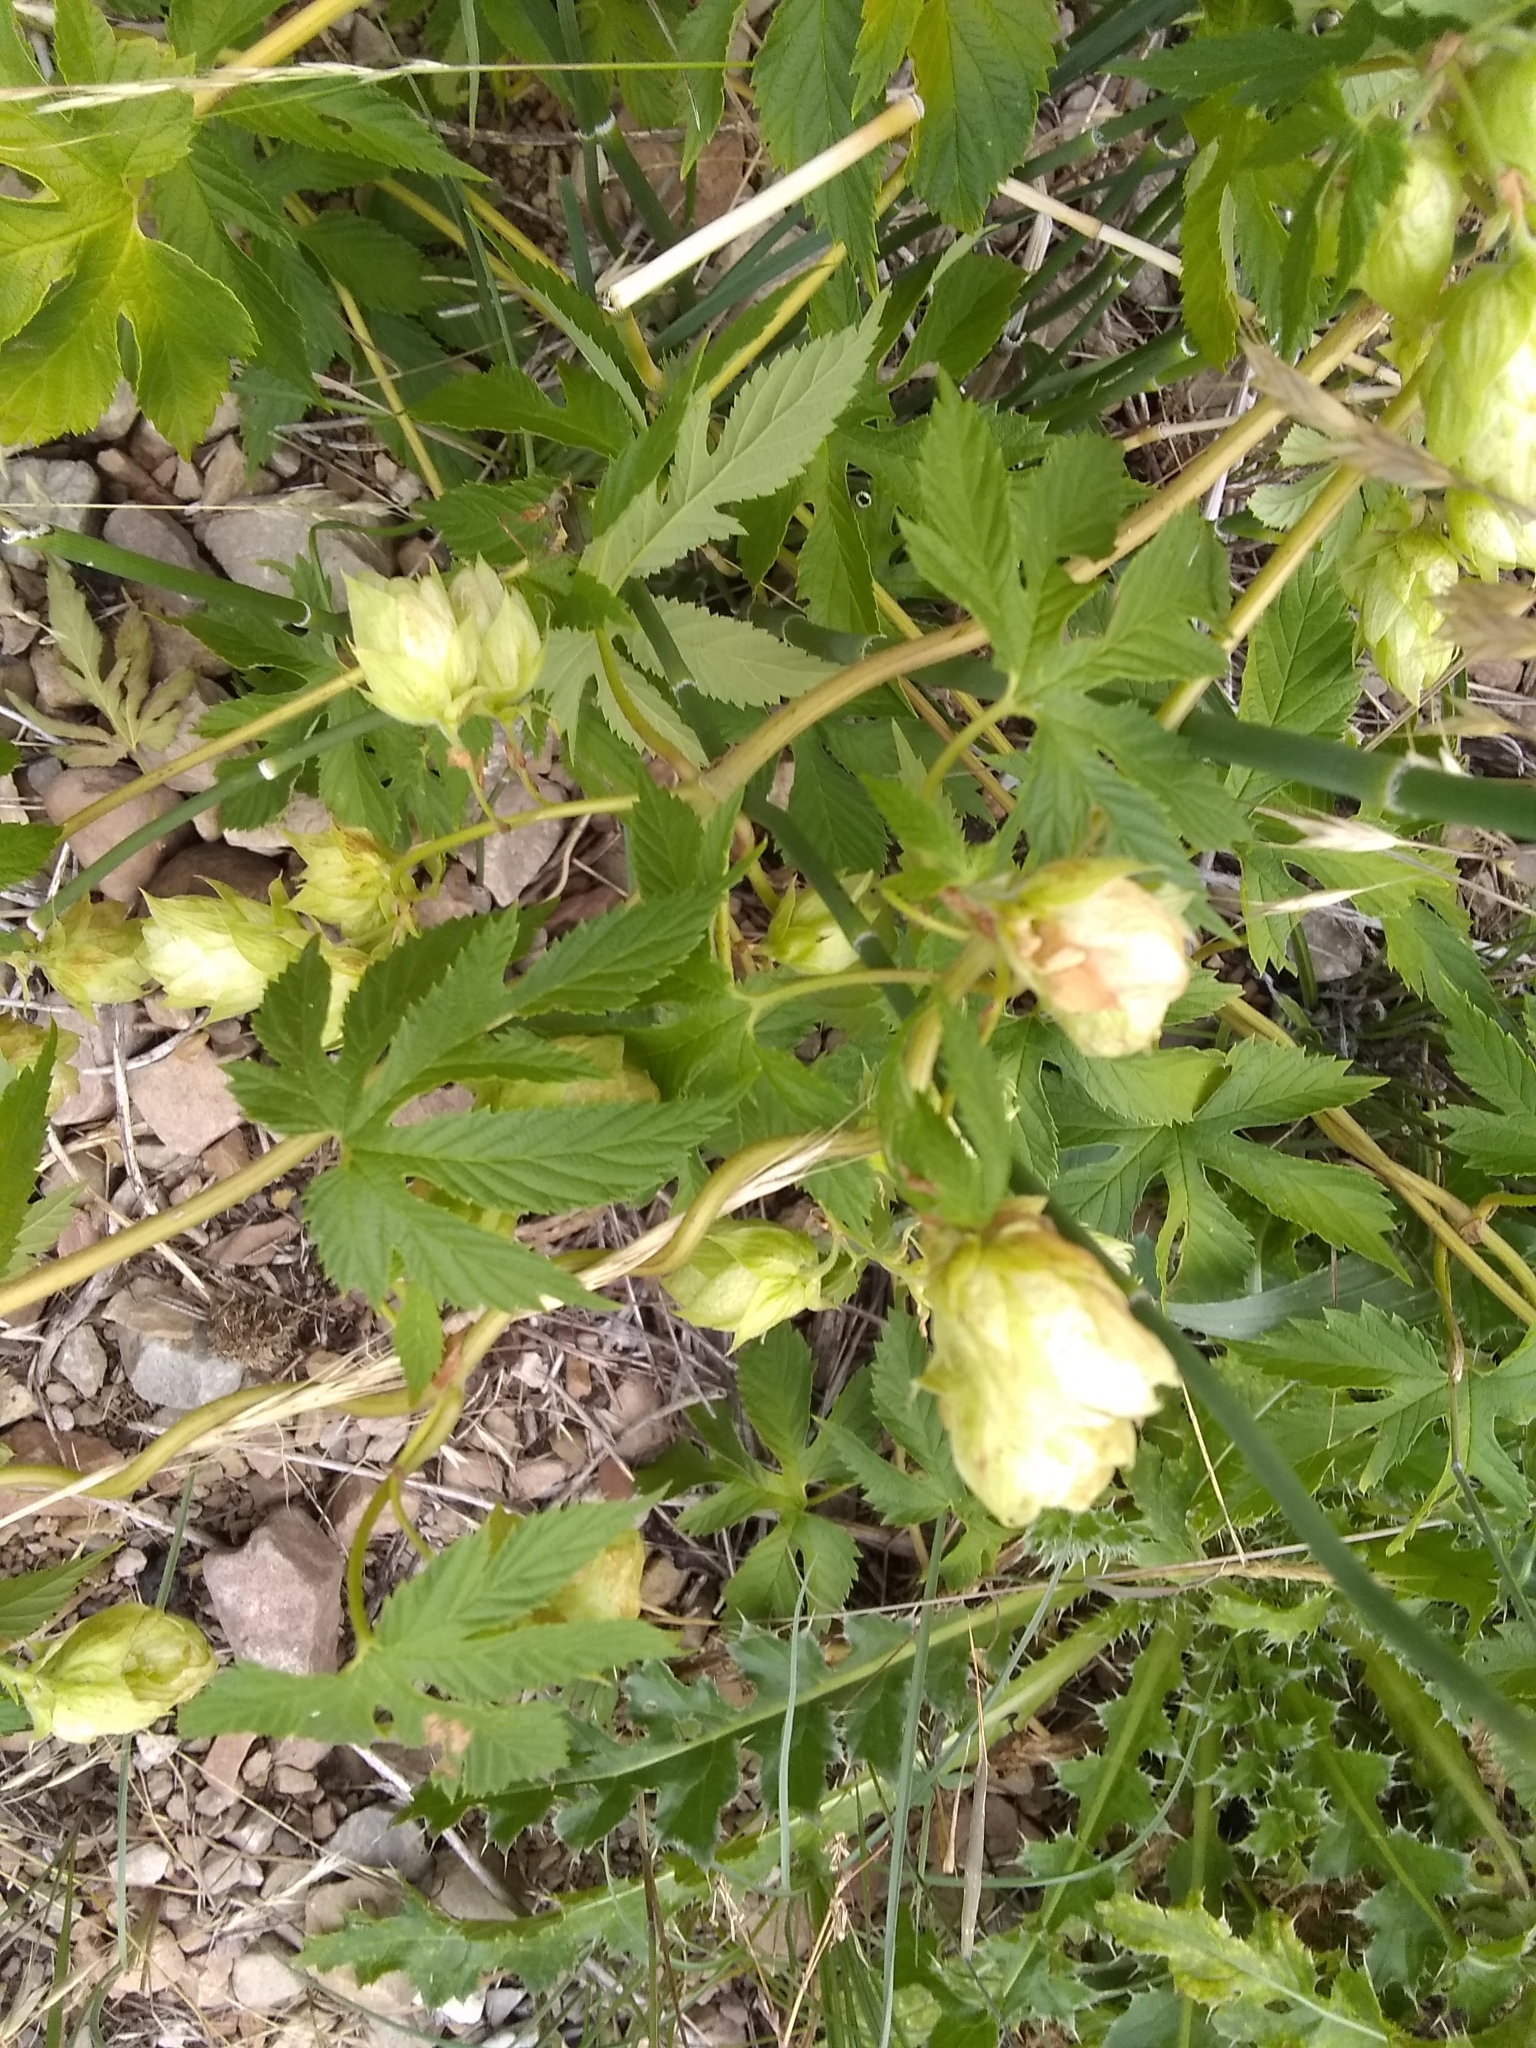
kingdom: Plantae
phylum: Tracheophyta
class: Magnoliopsida
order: Rosales
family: Cannabaceae
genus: Humulus
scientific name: Humulus lupulus
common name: Hop
